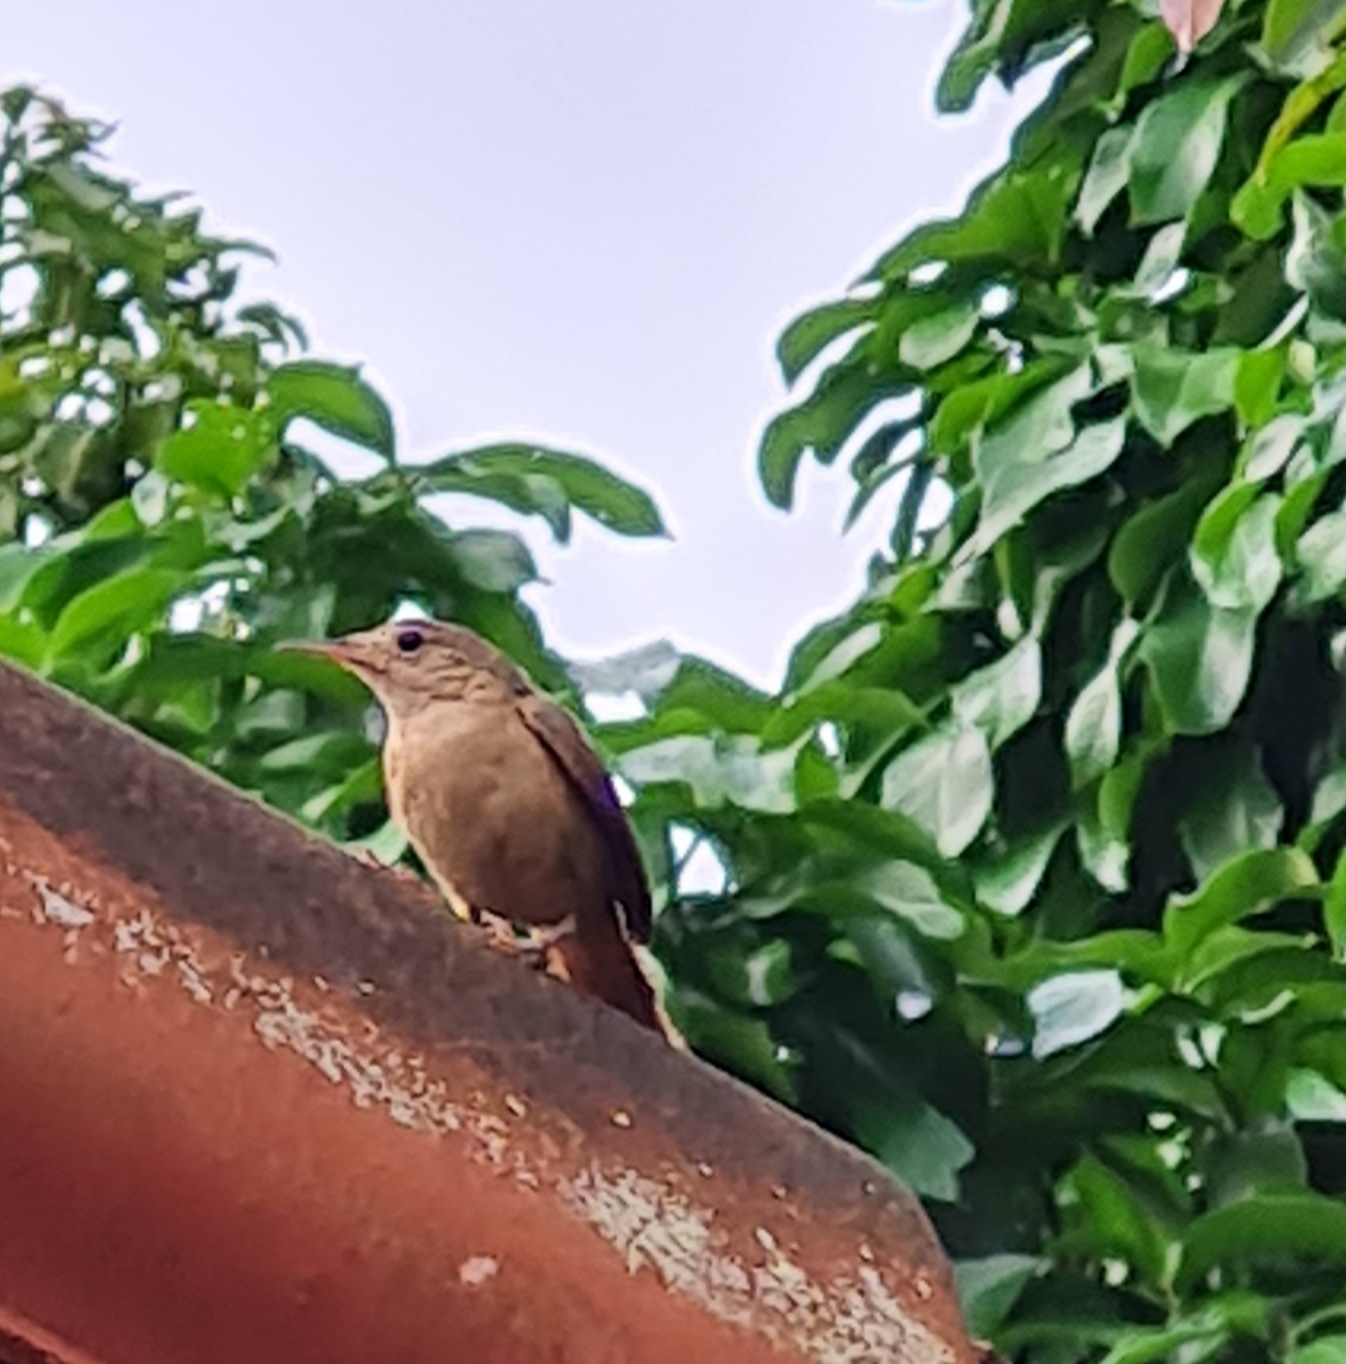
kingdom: Animalia
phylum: Chordata
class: Aves
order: Passeriformes
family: Troglodytidae
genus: Troglodytes
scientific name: Troglodytes aedon
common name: House wren
